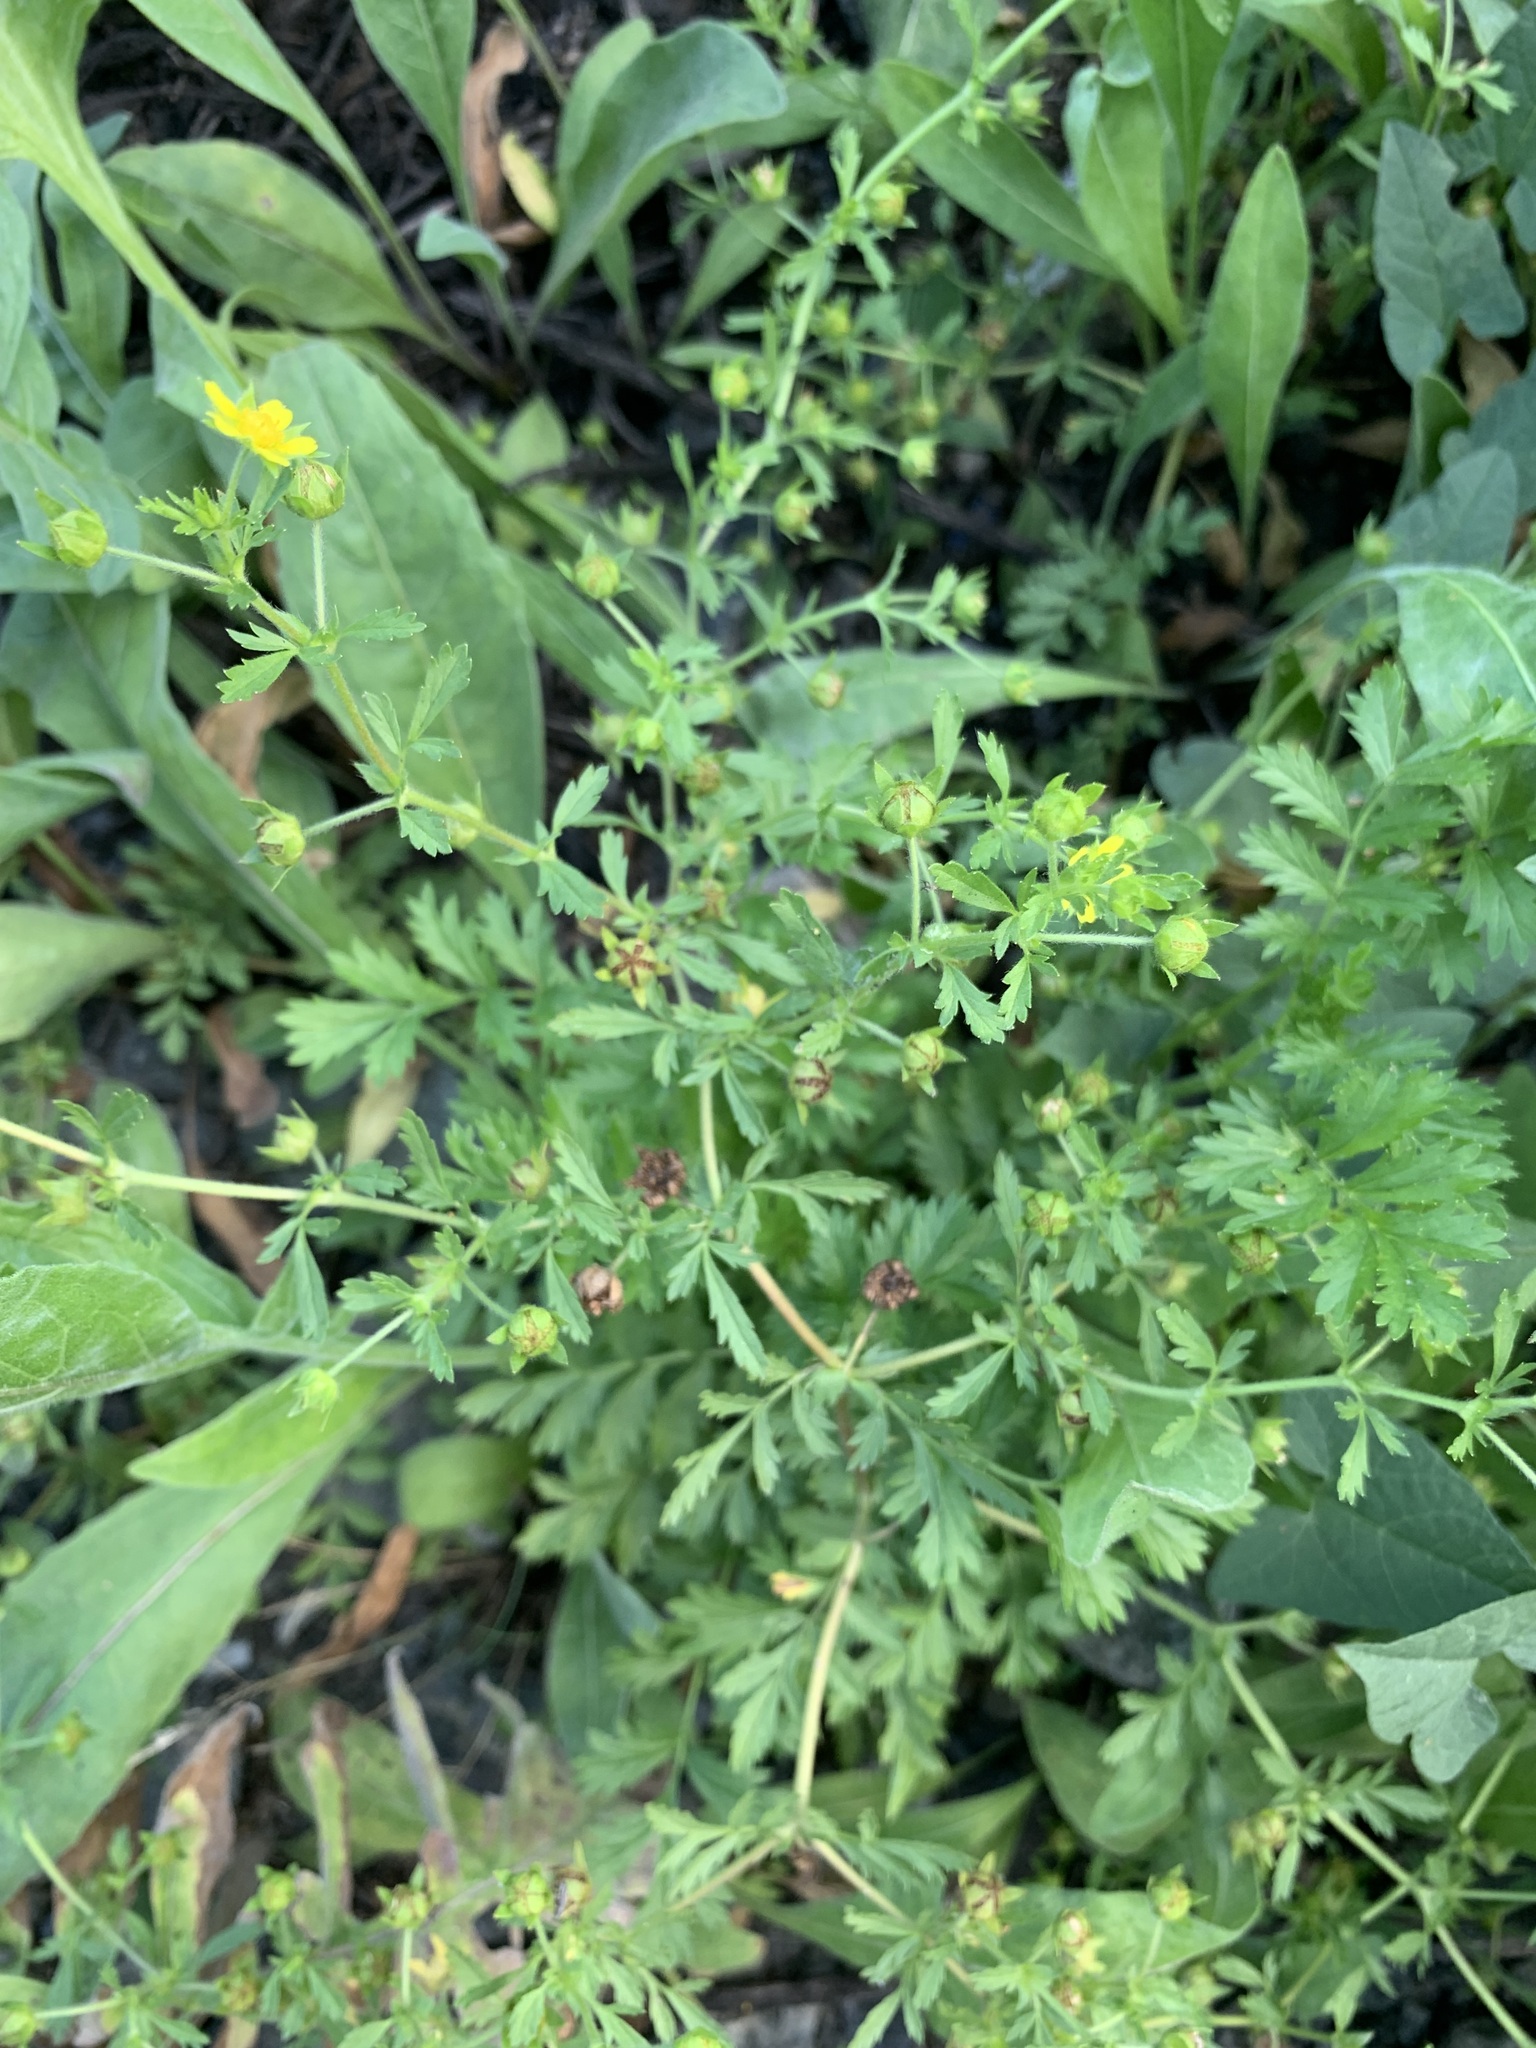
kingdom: Plantae
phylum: Tracheophyta
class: Magnoliopsida
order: Rosales
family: Rosaceae
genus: Potentilla
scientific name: Potentilla supina
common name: Prostrate cinquefoil
